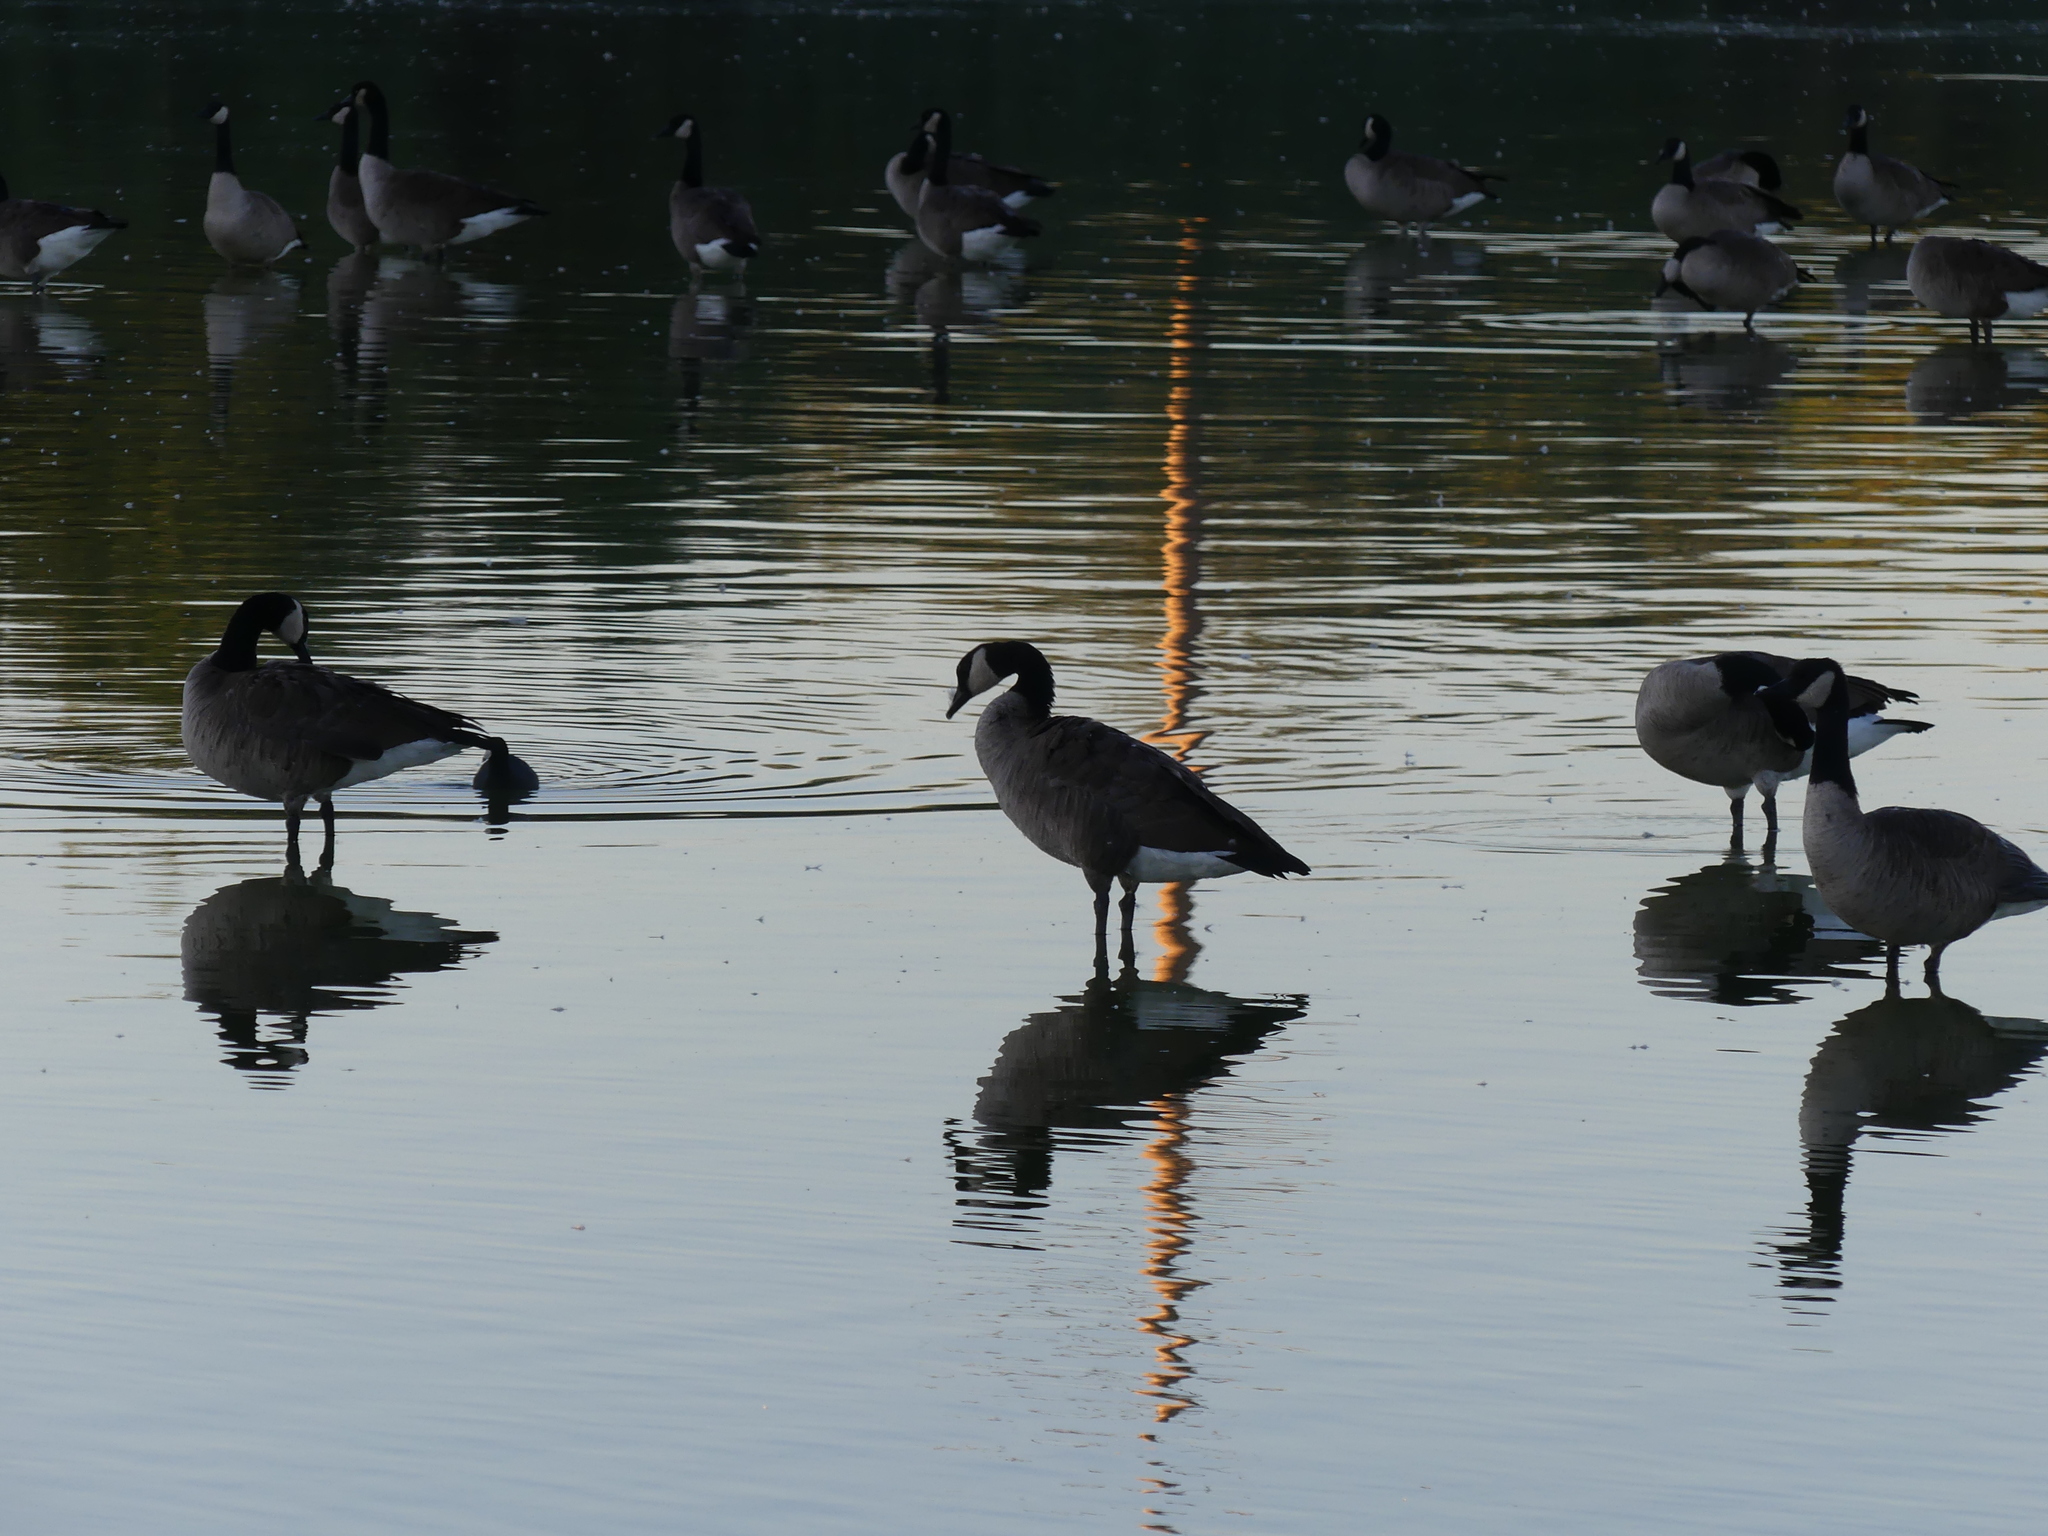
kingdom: Animalia
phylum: Chordata
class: Aves
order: Anseriformes
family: Anatidae
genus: Branta
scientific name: Branta canadensis
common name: Canada goose
